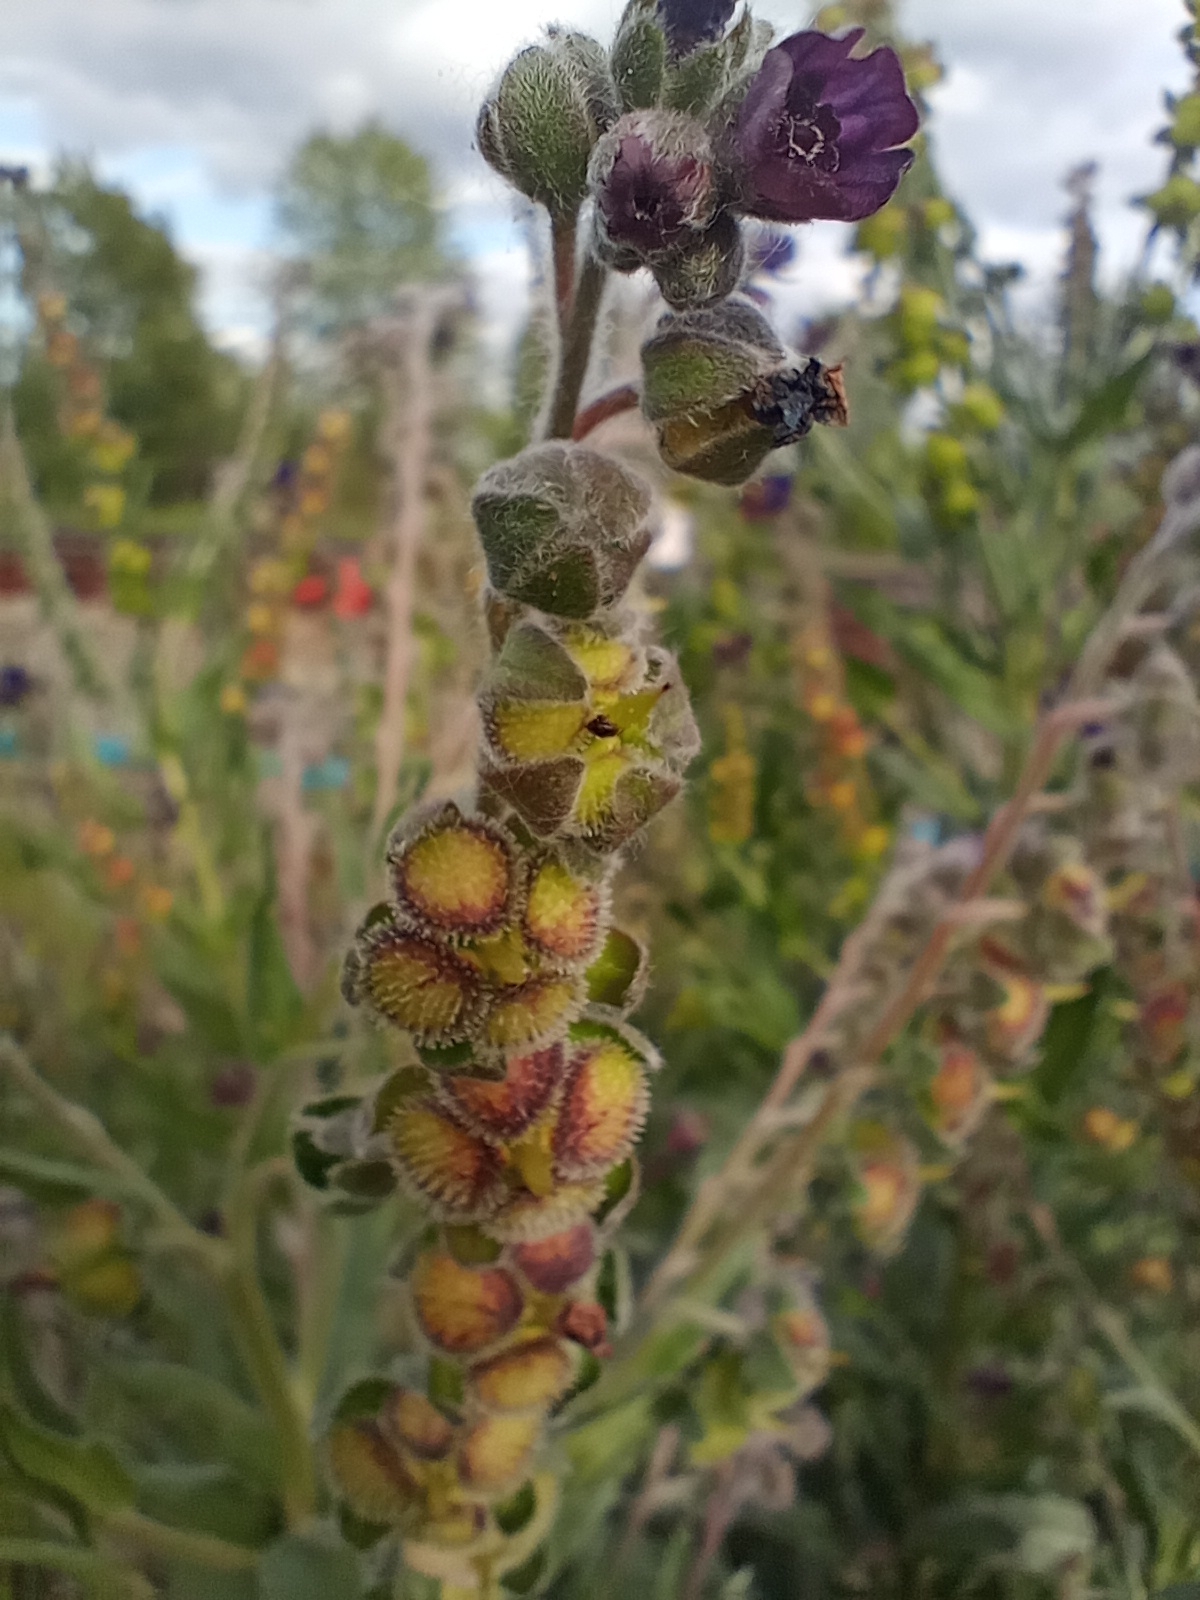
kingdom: Plantae
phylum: Tracheophyta
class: Magnoliopsida
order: Boraginales
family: Boraginaceae
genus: Cynoglossum
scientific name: Cynoglossum officinale
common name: Hound's-tongue
